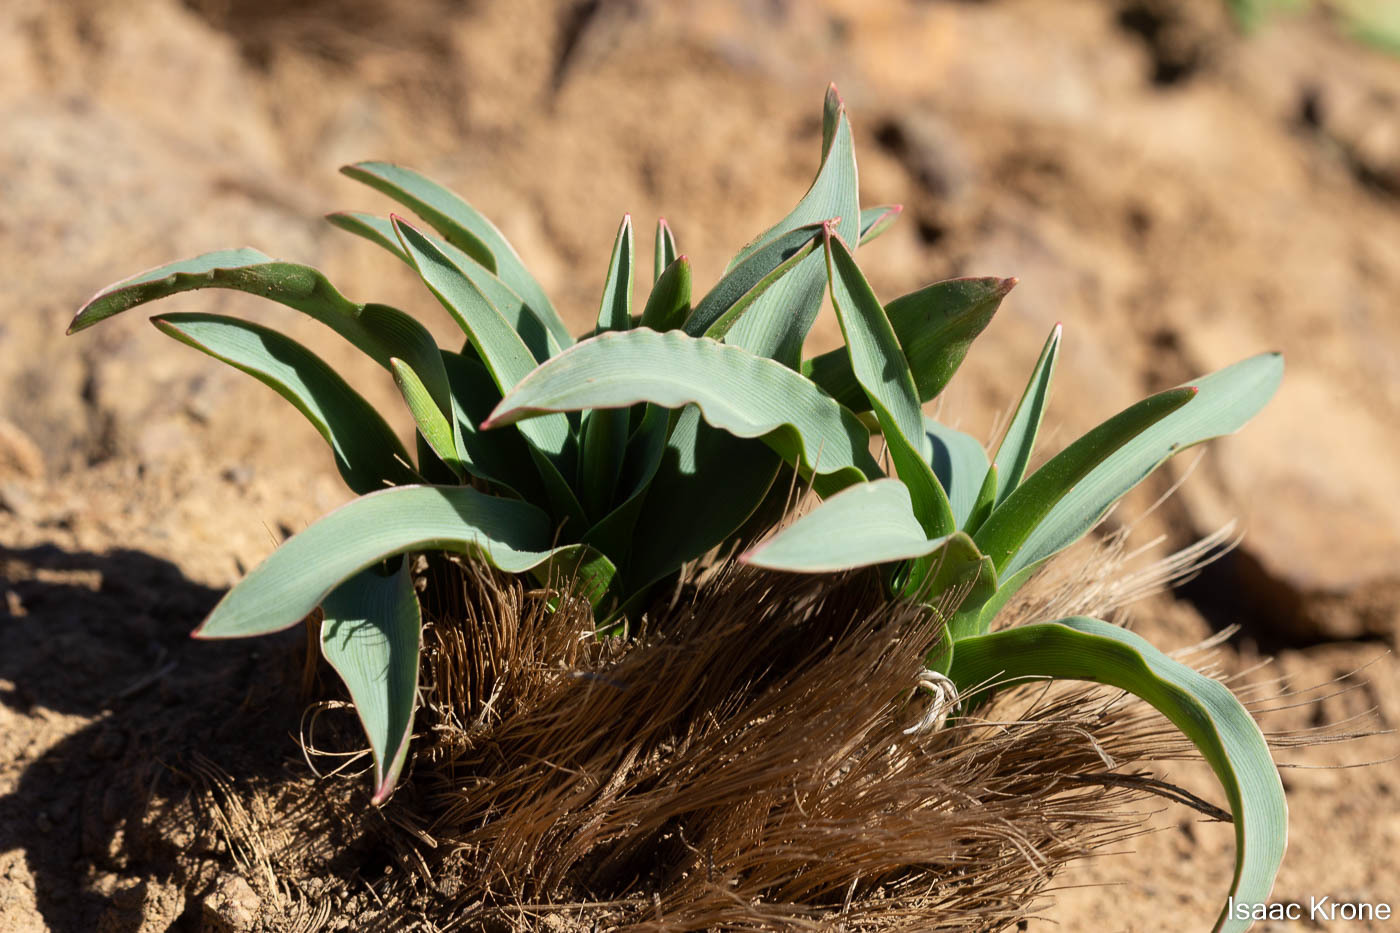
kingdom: Plantae
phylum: Tracheophyta
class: Liliopsida
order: Asparagales
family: Asparagaceae
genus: Chlorogalum
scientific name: Chlorogalum pomeridianum
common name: Amole
